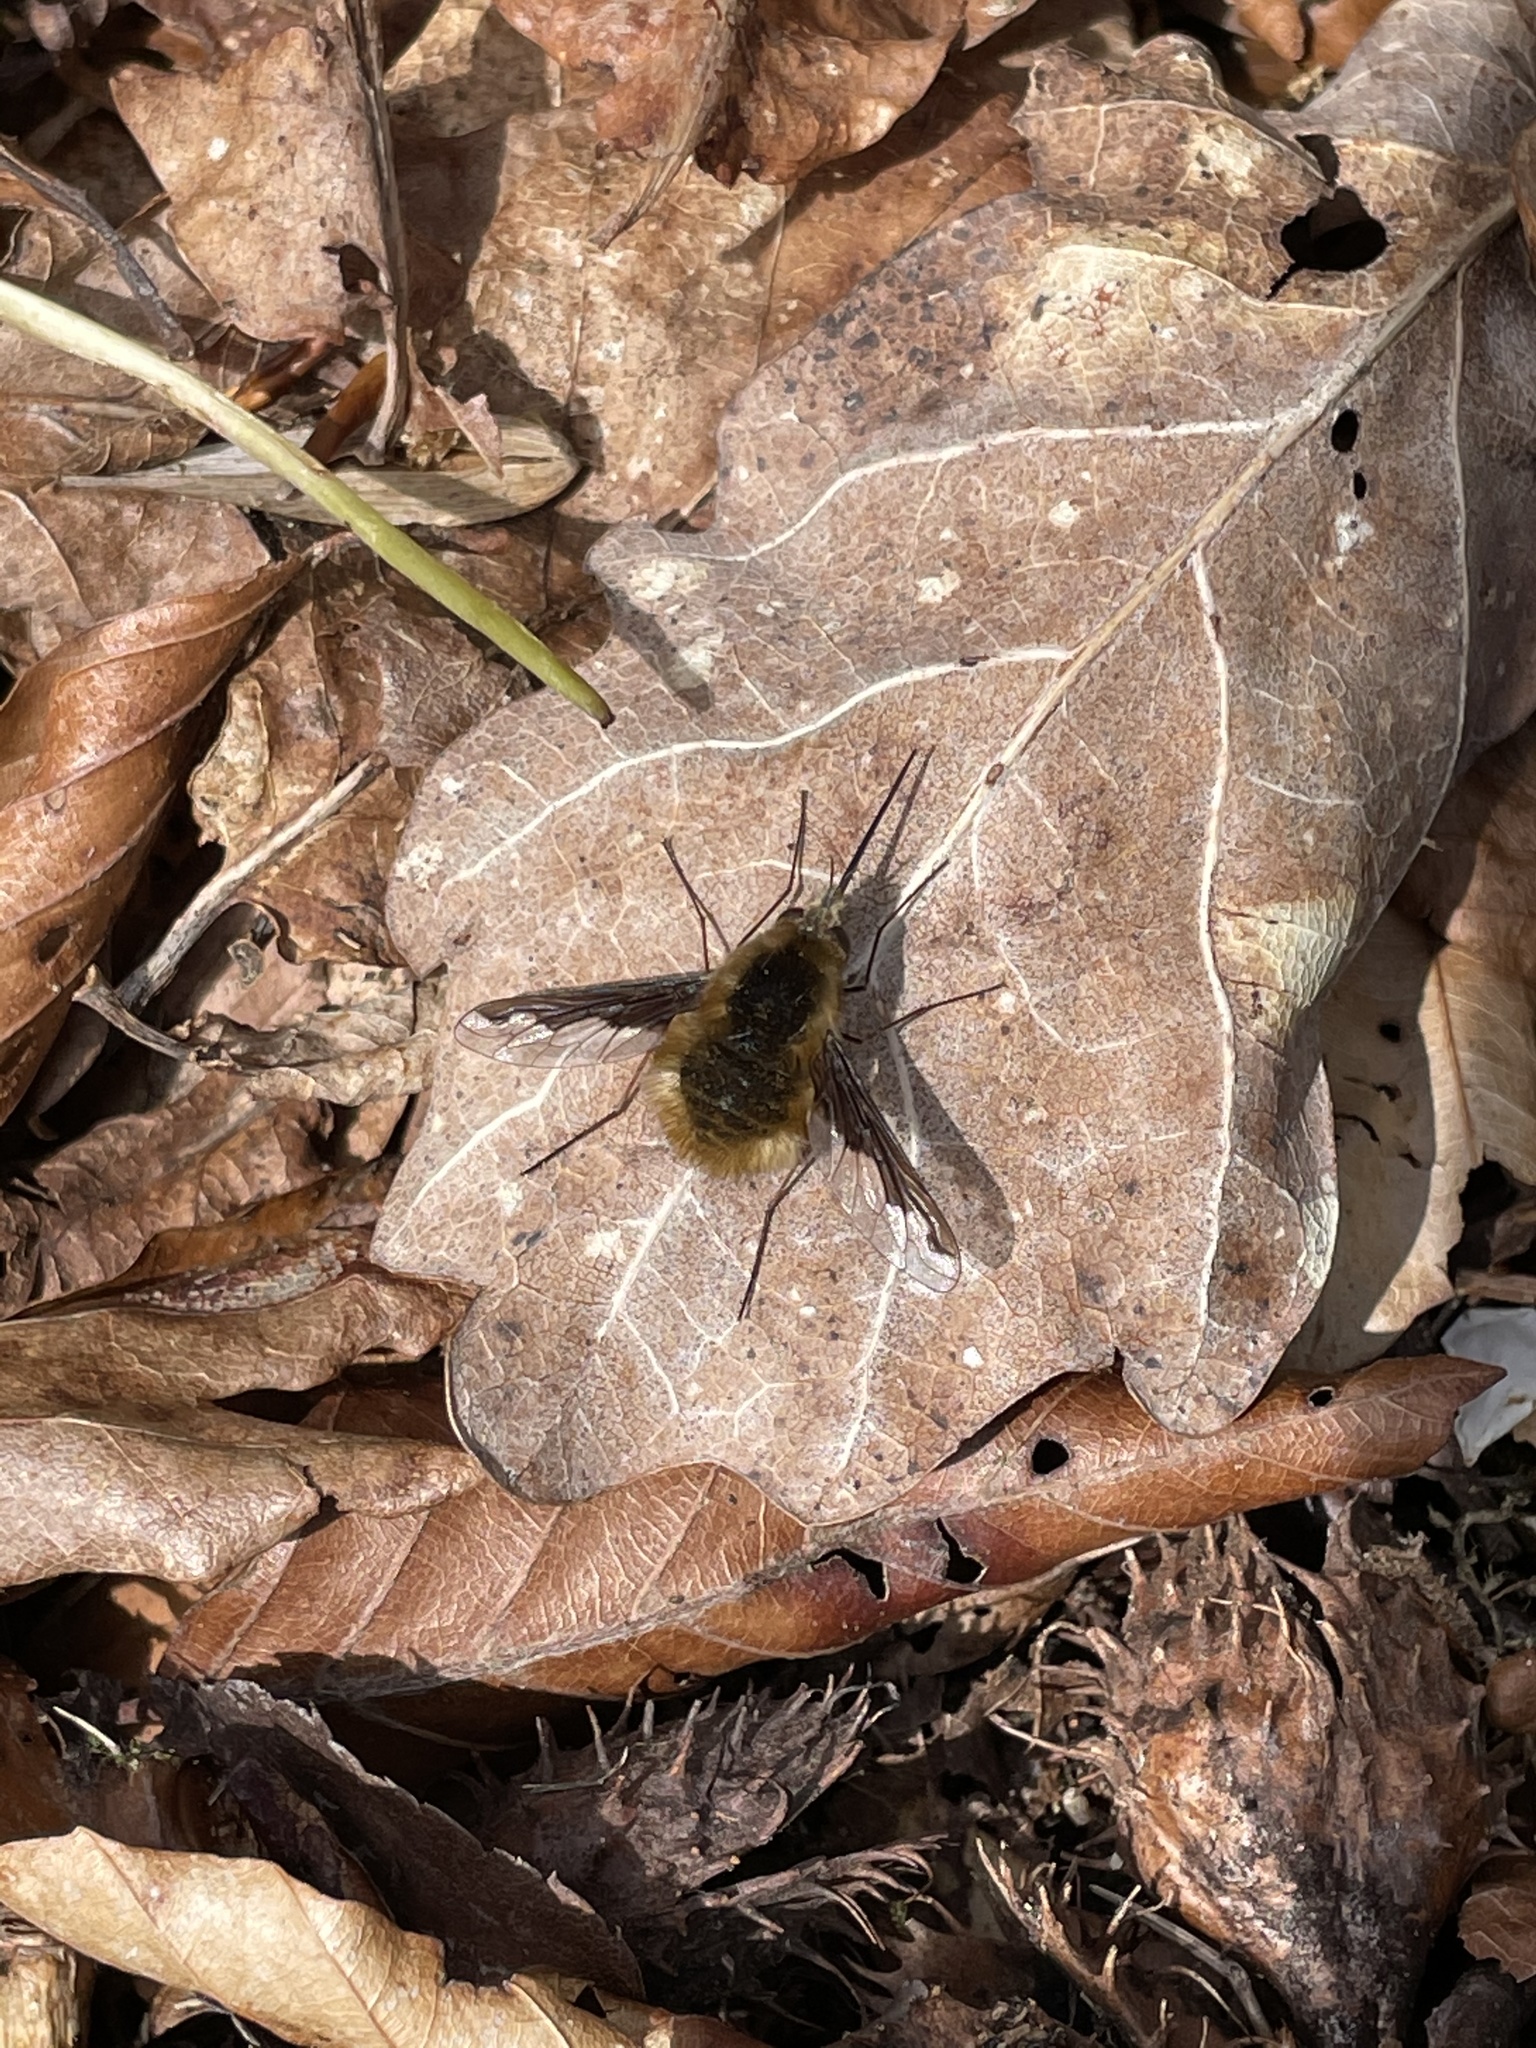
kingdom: Animalia
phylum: Arthropoda
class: Insecta
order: Diptera
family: Bombyliidae
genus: Bombylius
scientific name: Bombylius major
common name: Bee fly
